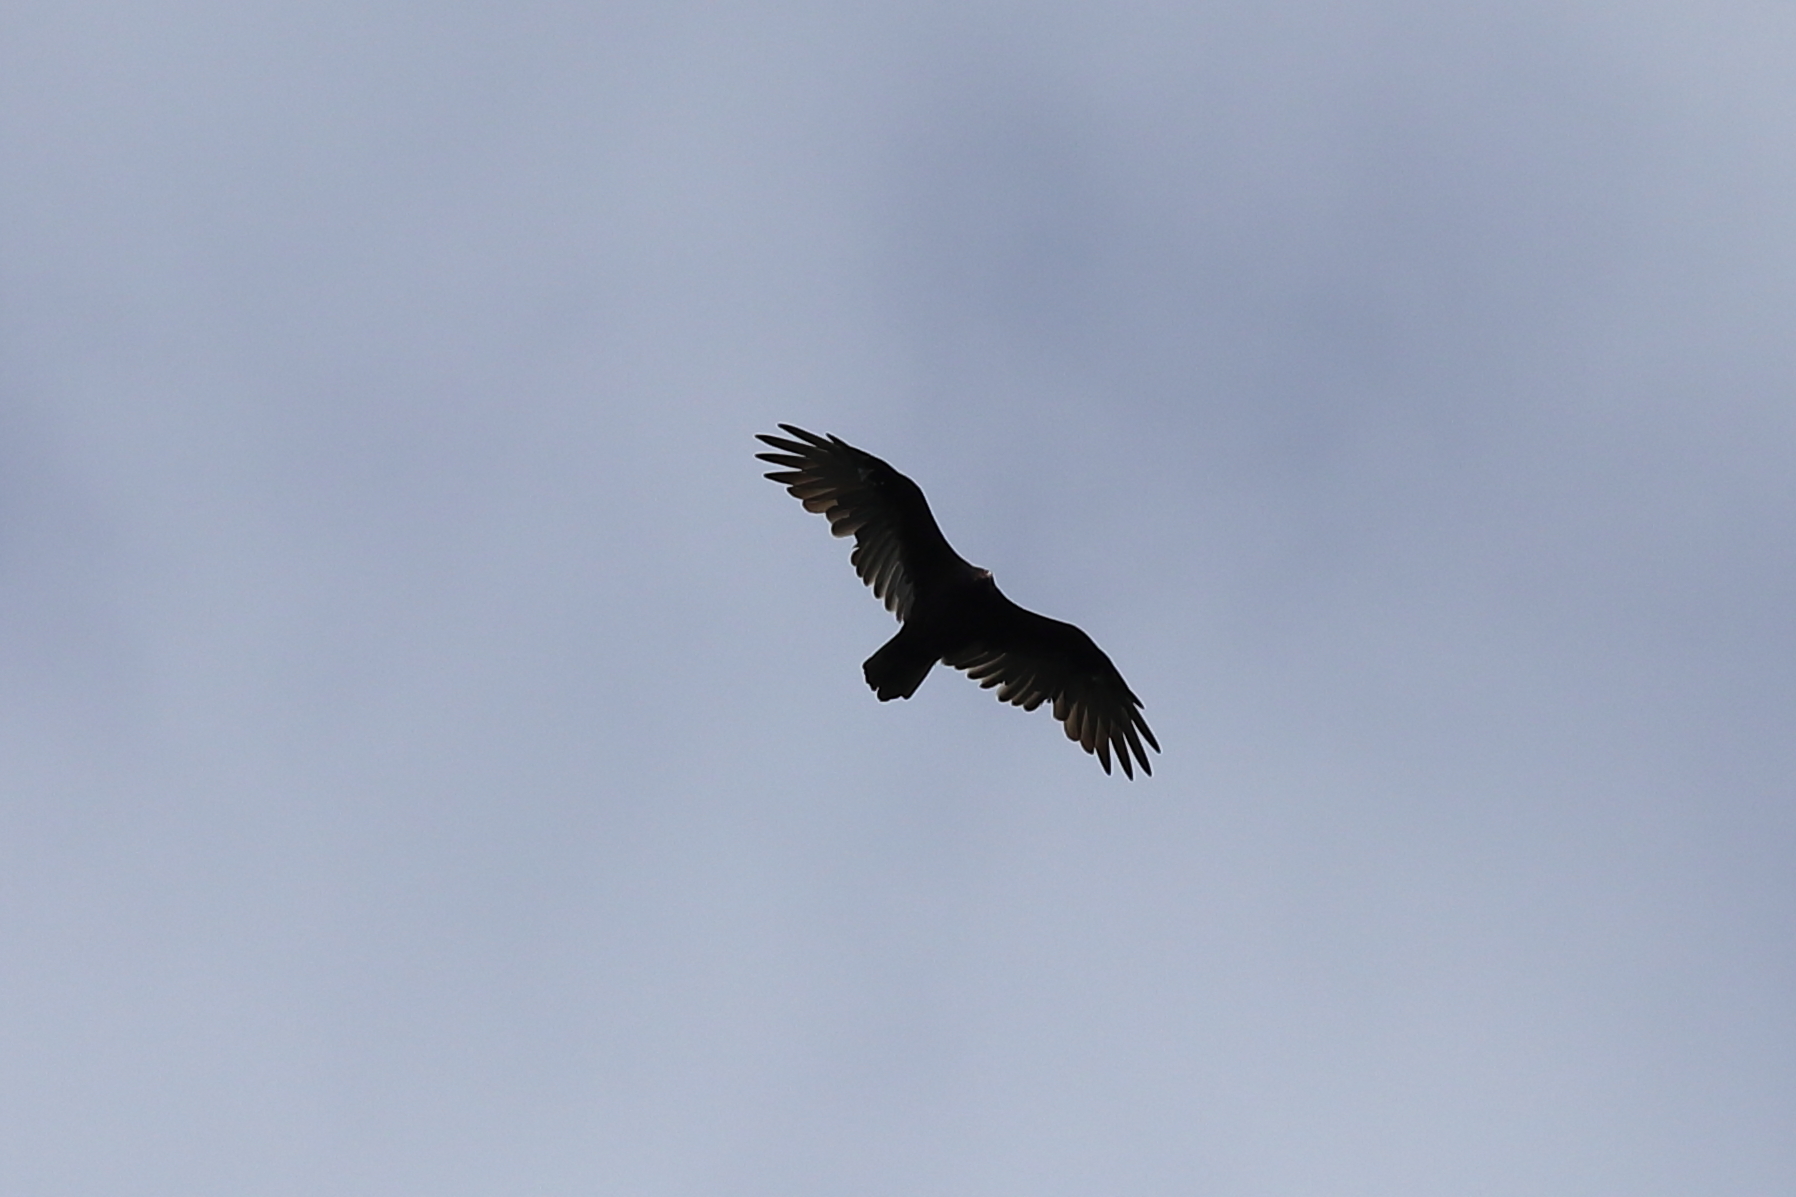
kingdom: Animalia
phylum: Chordata
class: Aves
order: Accipitriformes
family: Cathartidae
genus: Cathartes
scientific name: Cathartes aura
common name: Turkey vulture
